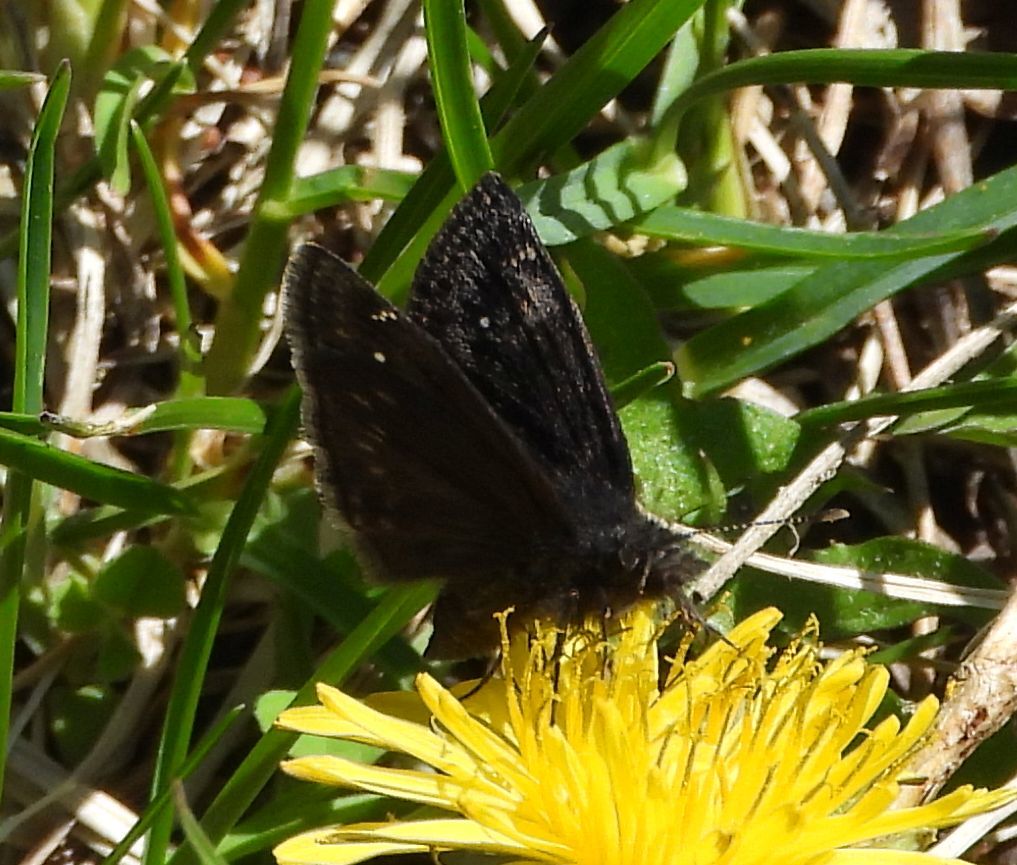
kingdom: Animalia
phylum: Arthropoda
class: Insecta
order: Lepidoptera
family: Hesperiidae
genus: Erynnis
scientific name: Erynnis lucilius
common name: Columbine duskywing
